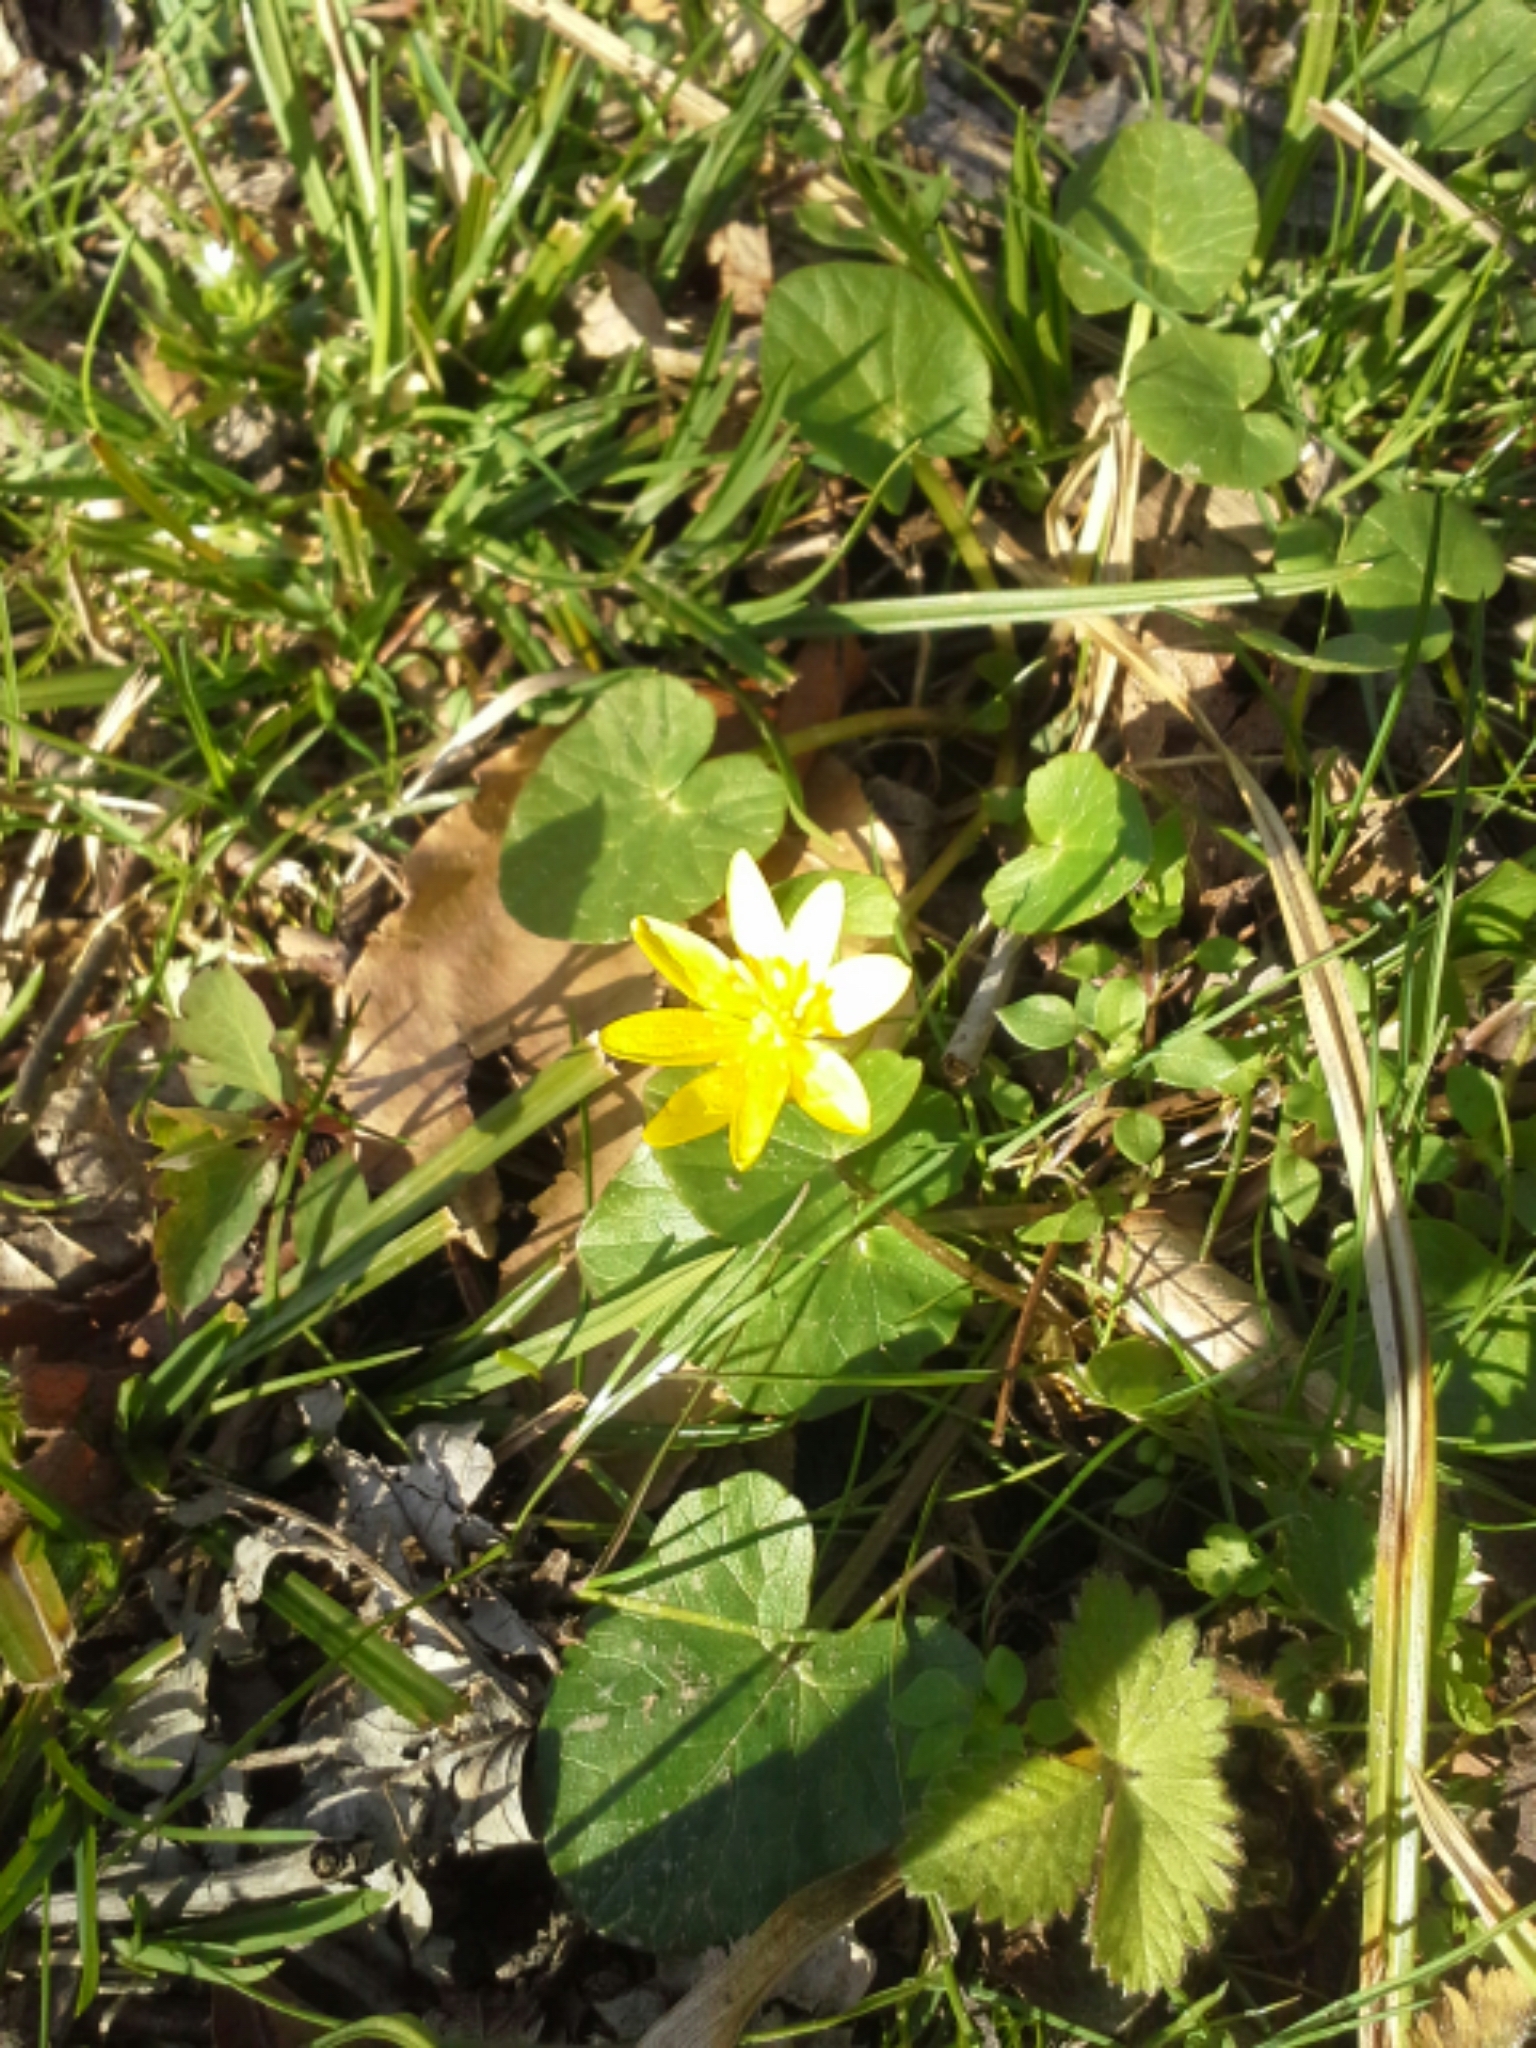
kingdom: Plantae
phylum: Tracheophyta
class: Magnoliopsida
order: Ranunculales
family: Ranunculaceae
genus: Ficaria
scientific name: Ficaria verna
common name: Lesser celandine
